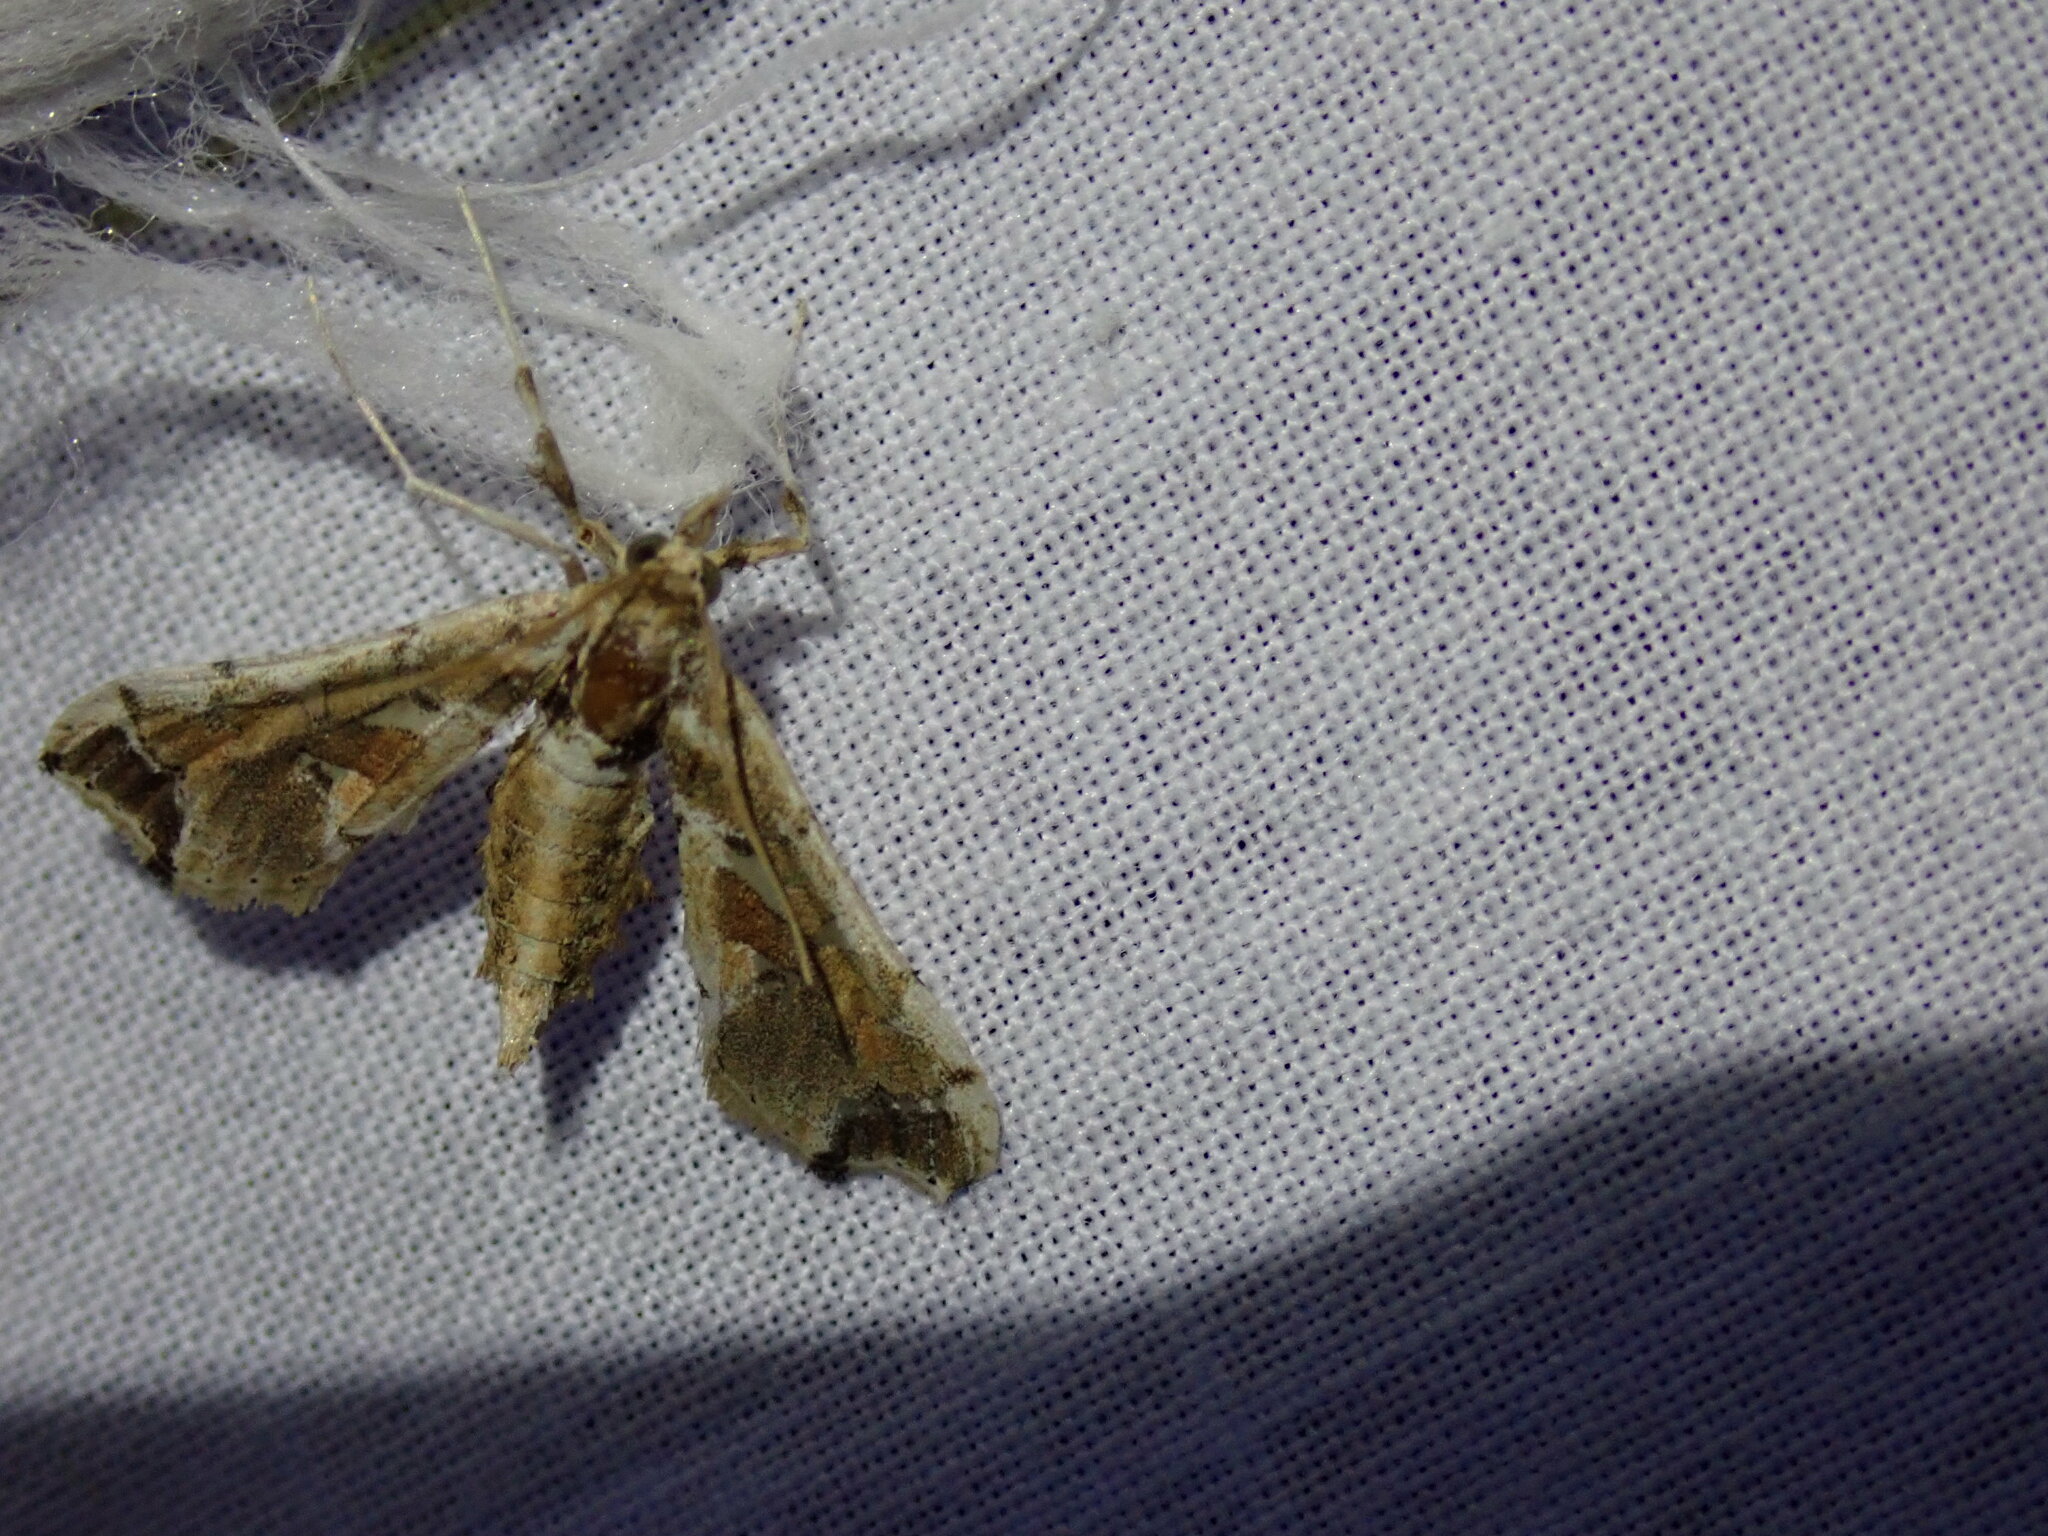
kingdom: Animalia
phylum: Arthropoda
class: Insecta
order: Lepidoptera
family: Crambidae
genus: Leucinodes
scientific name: Leucinodes laisalis
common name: African tomato pearl
